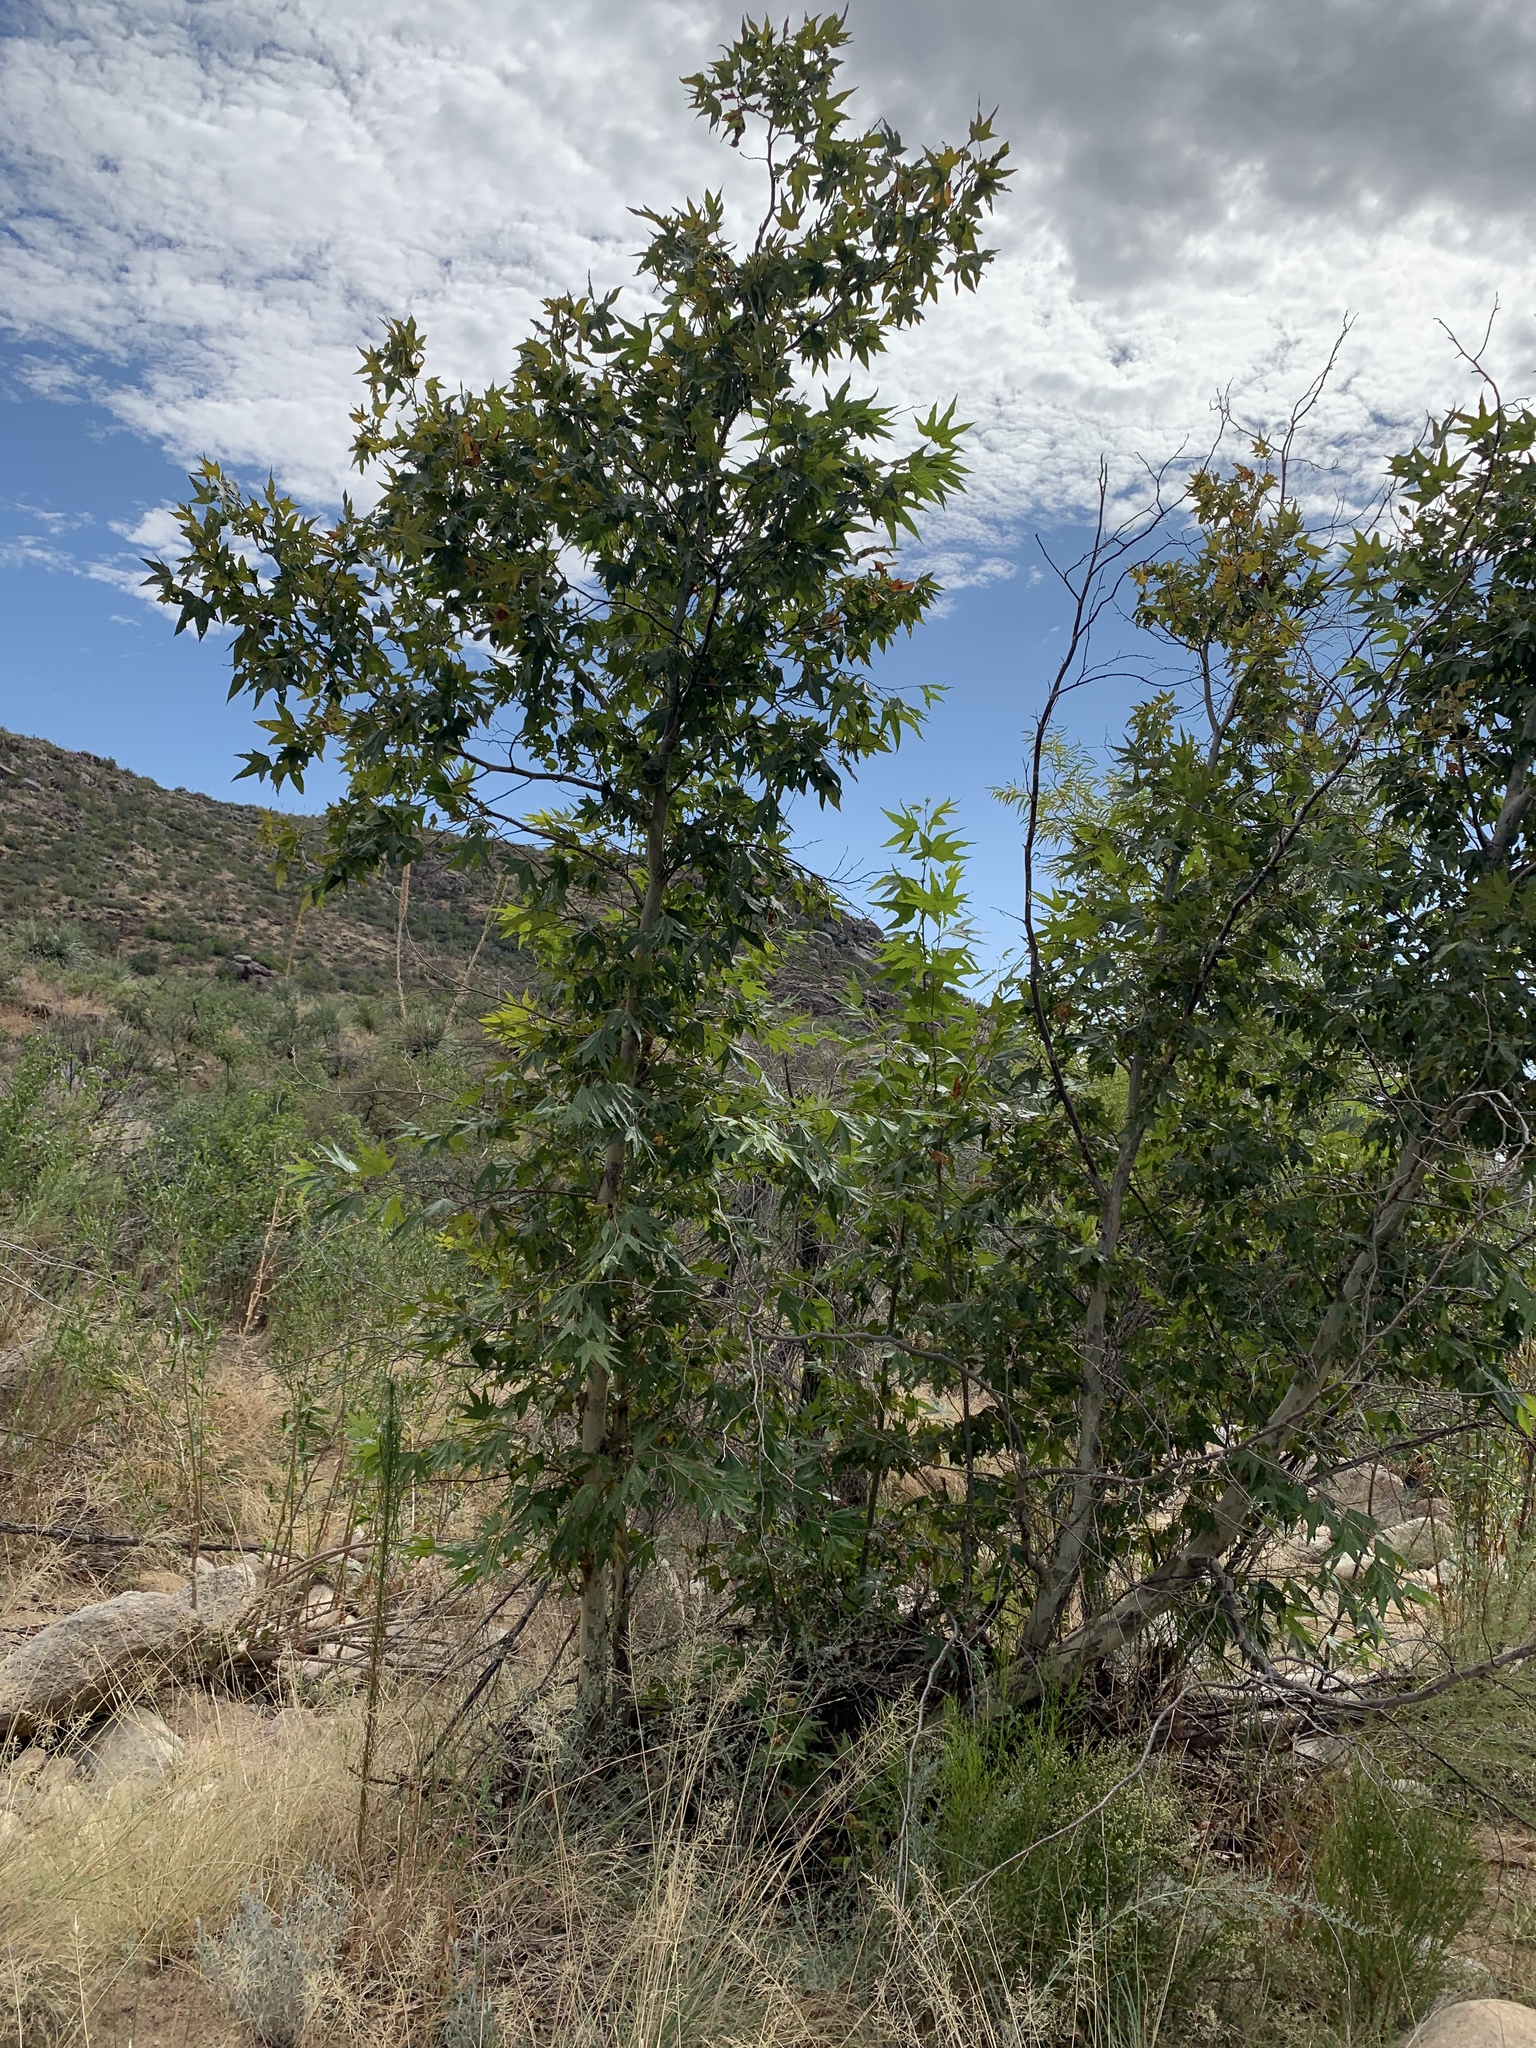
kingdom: Plantae
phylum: Tracheophyta
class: Magnoliopsida
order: Proteales
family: Platanaceae
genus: Platanus
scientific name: Platanus wrightii
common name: Arizona sycamore
